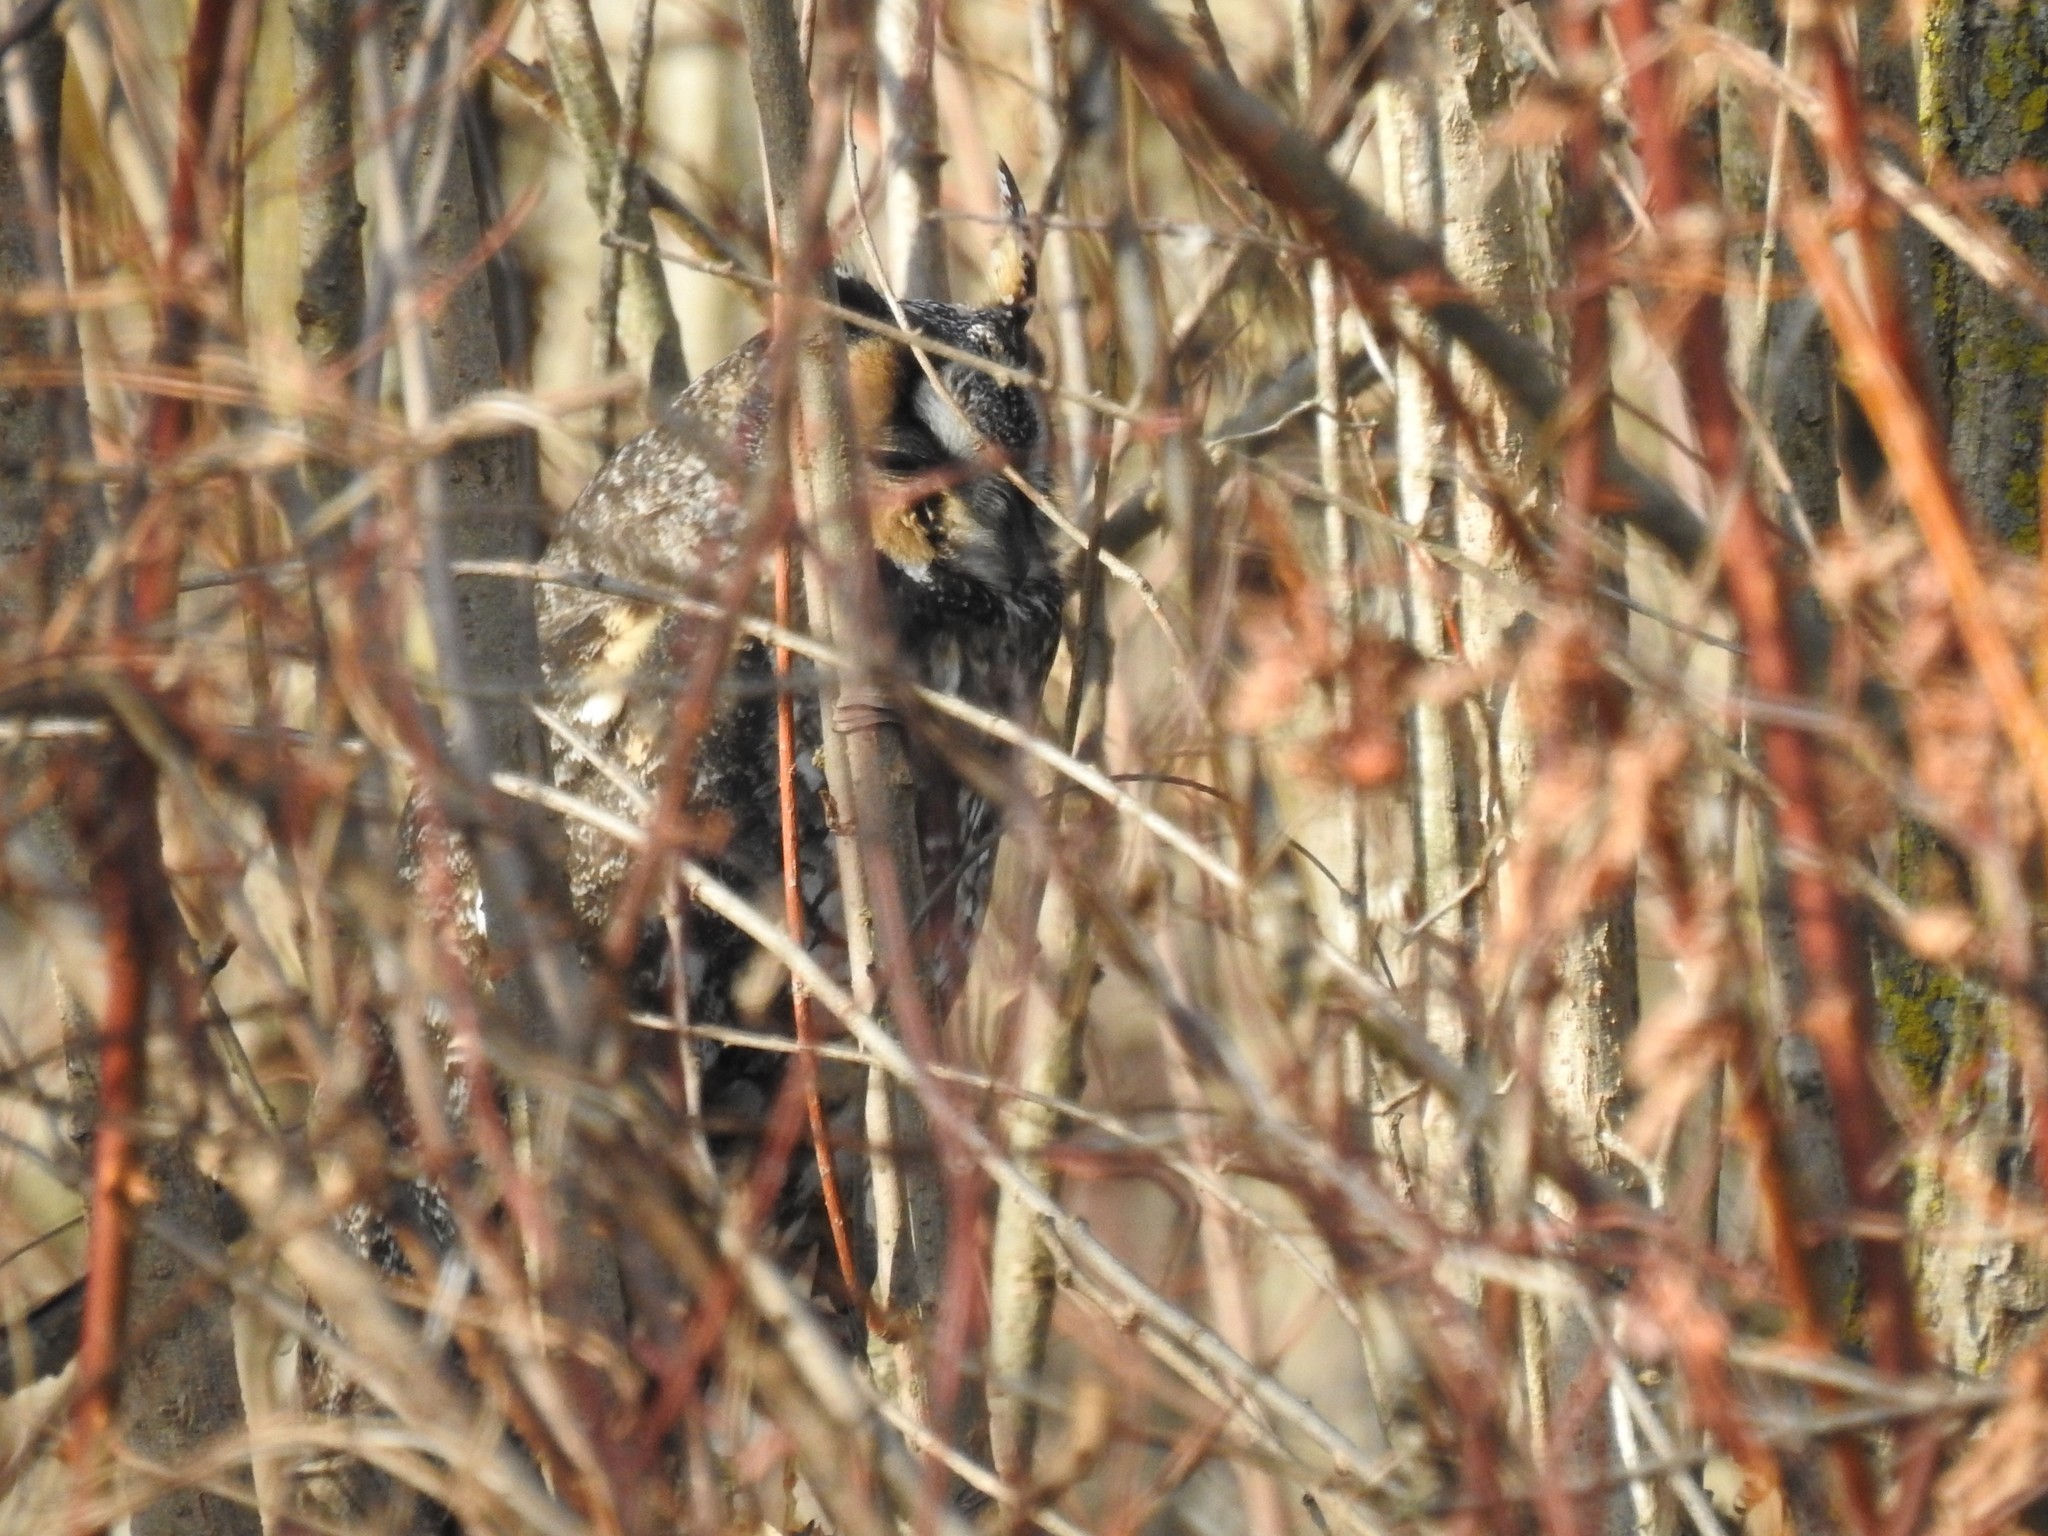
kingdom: Animalia
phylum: Chordata
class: Aves
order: Strigiformes
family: Strigidae
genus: Asio
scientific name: Asio otus
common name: Long-eared owl
